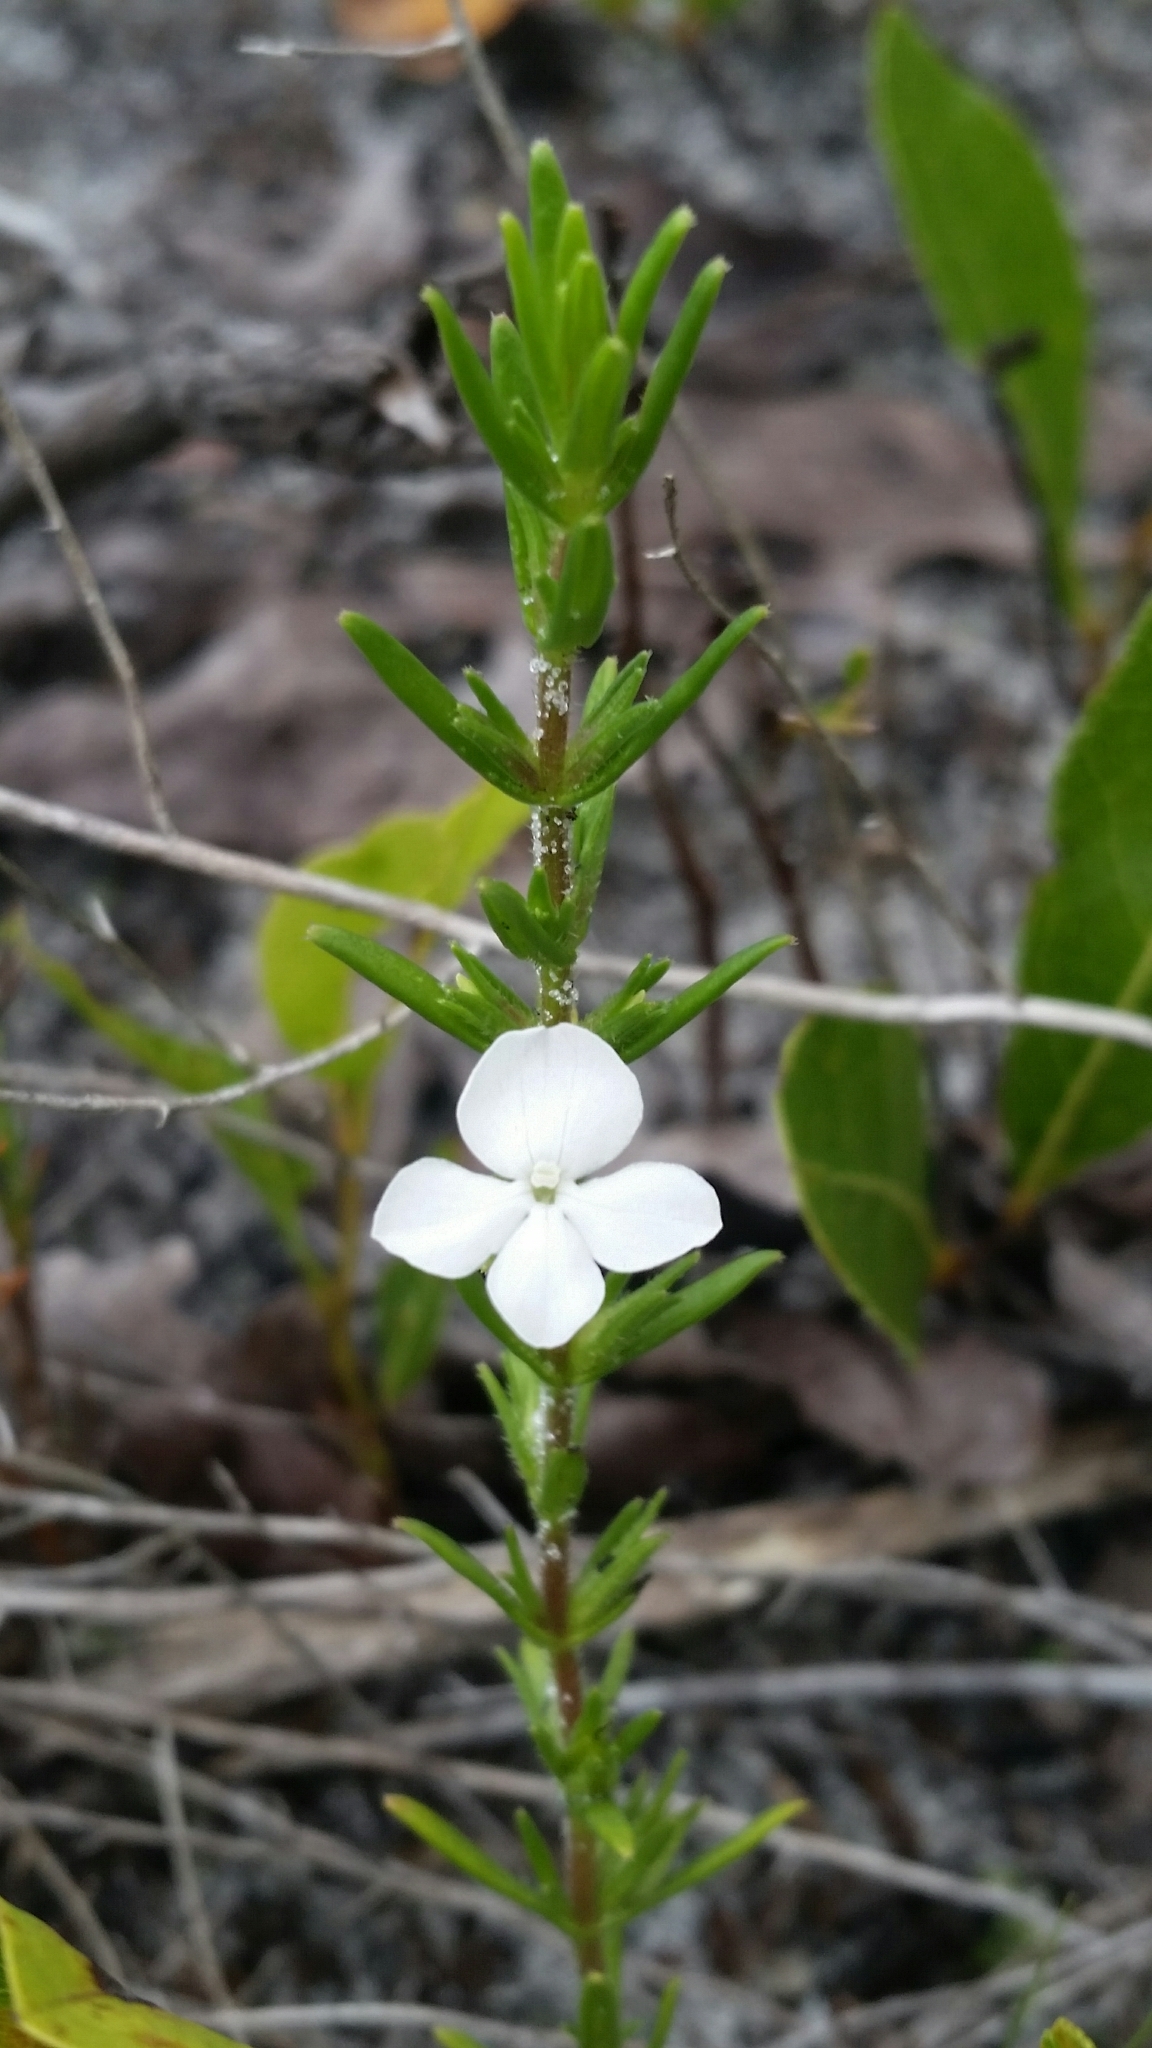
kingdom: Plantae
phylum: Tracheophyta
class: Magnoliopsida
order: Lamiales
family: Plantaginaceae
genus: Gratiola
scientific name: Gratiola hispida
